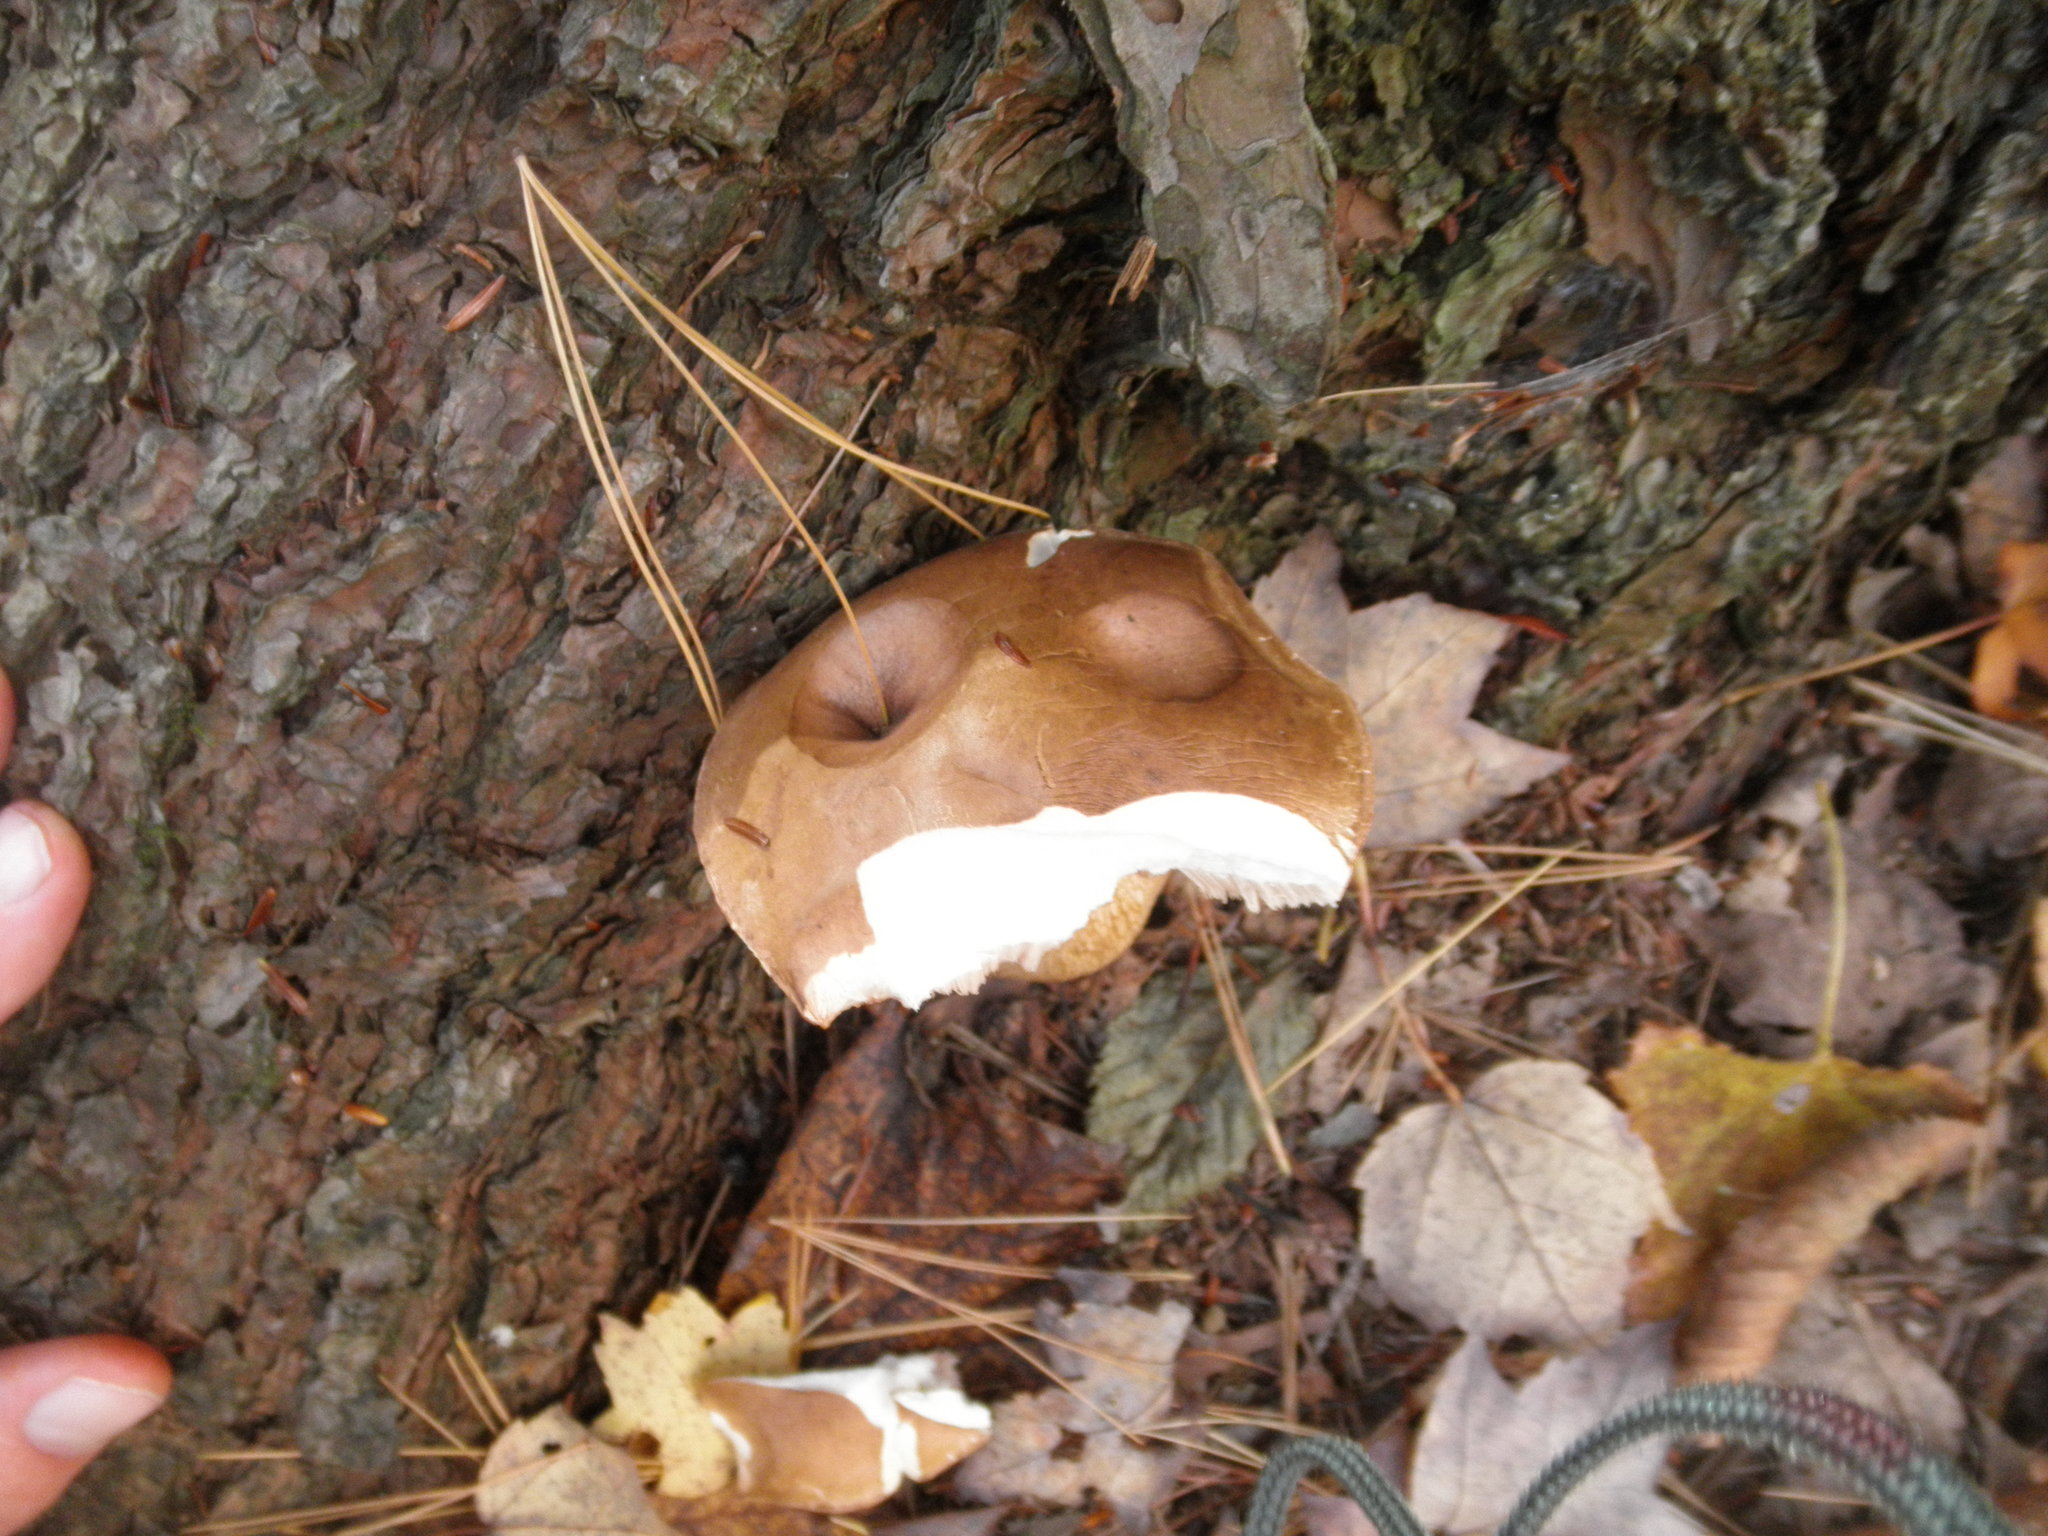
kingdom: Fungi
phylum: Basidiomycota
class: Agaricomycetes
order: Boletales
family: Boletaceae
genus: Tylopilus
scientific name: Tylopilus felleus
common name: Bitter bolete
